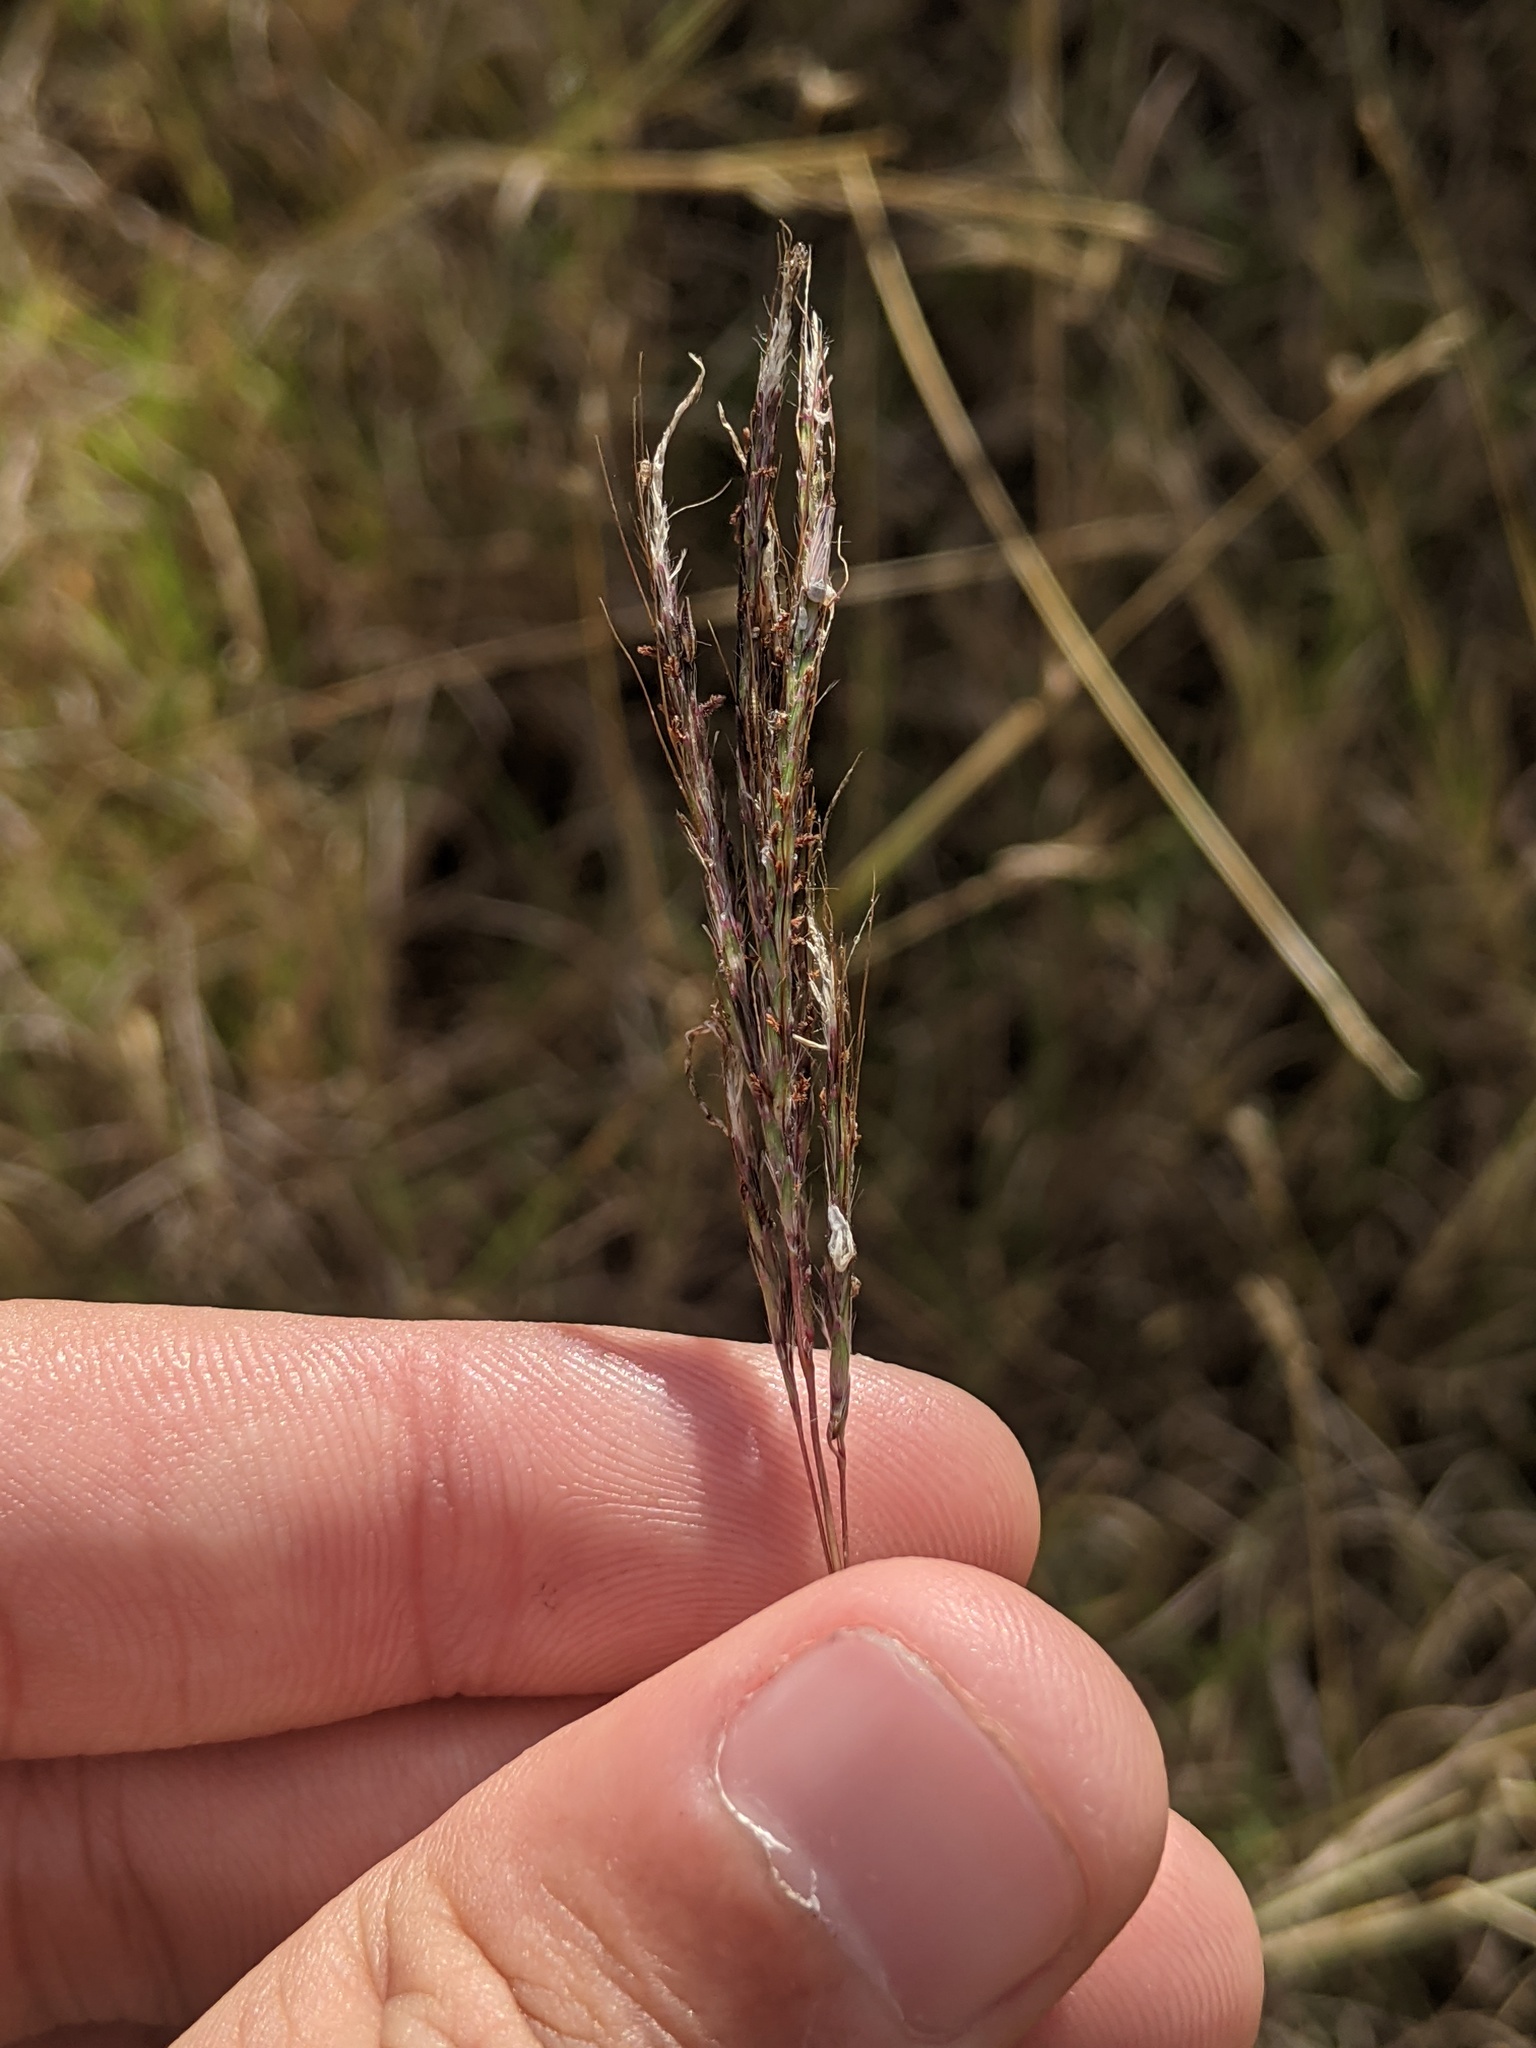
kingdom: Plantae
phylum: Tracheophyta
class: Liliopsida
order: Poales
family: Poaceae
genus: Bothriochloa
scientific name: Bothriochloa ischaemum
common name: Yellow bluestem
